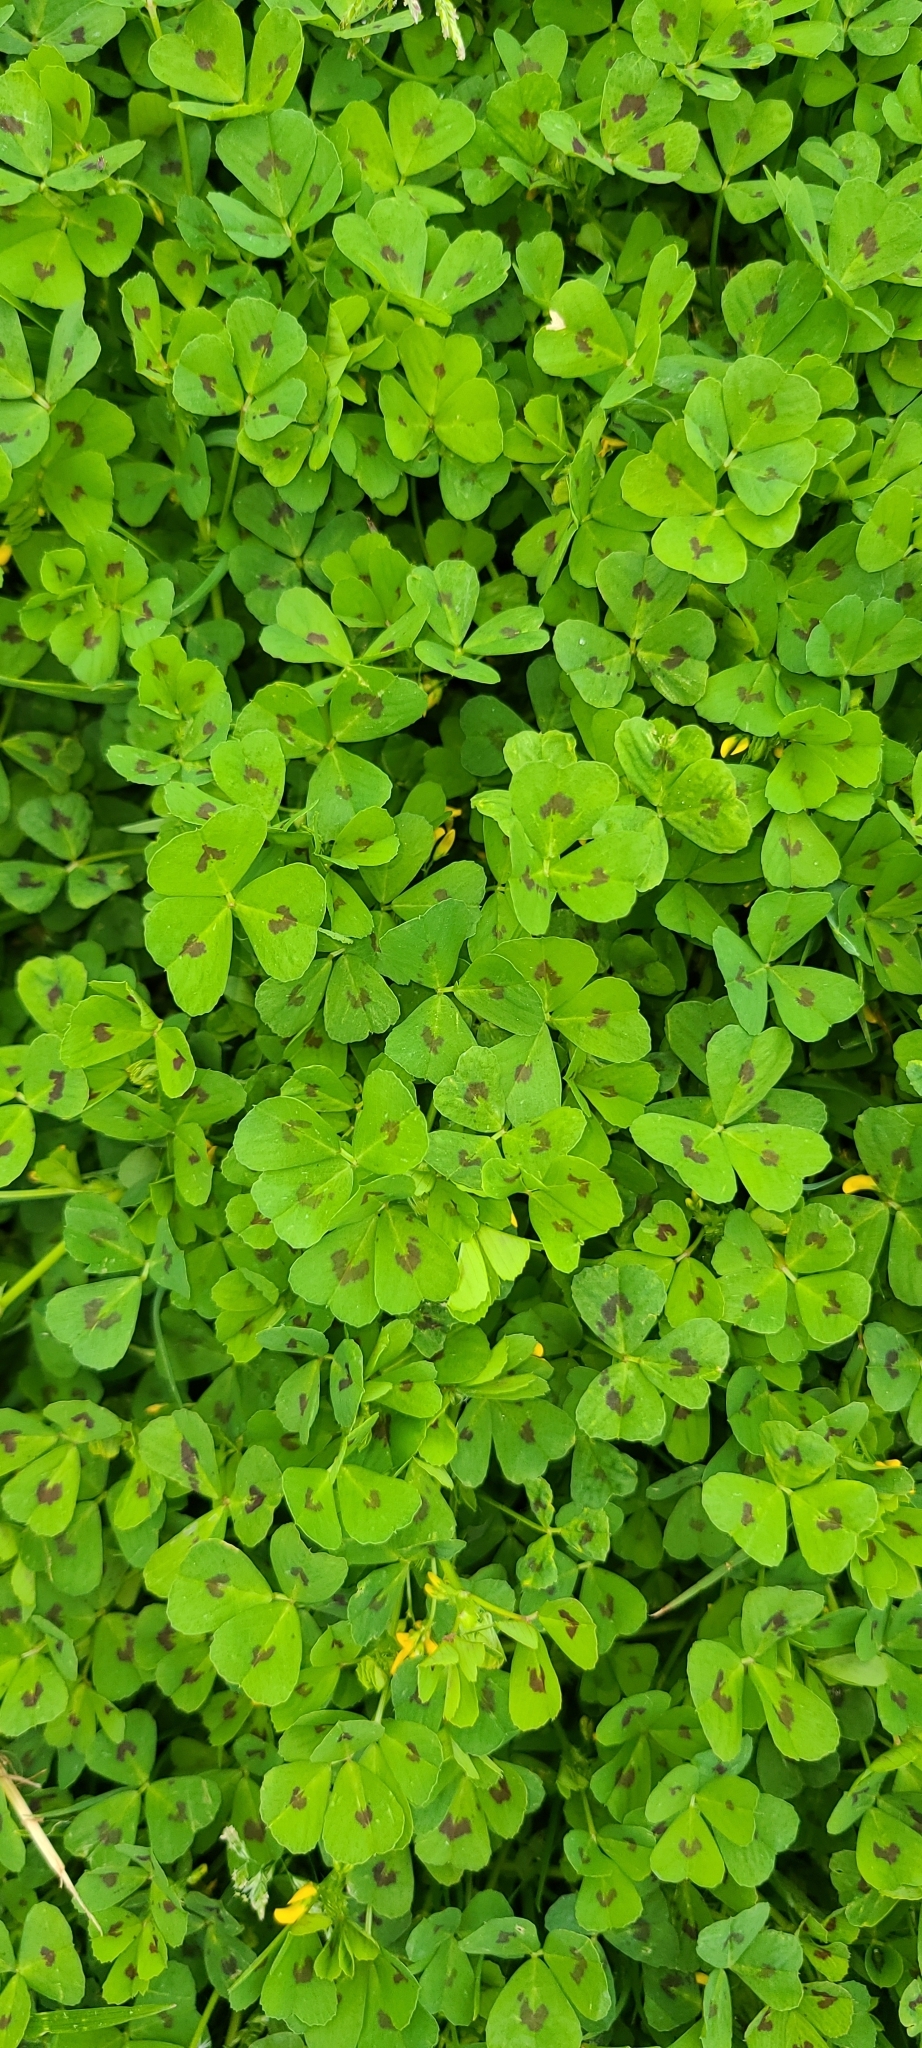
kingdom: Plantae
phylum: Tracheophyta
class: Magnoliopsida
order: Fabales
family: Fabaceae
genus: Medicago
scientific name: Medicago arabica
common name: Spotted medick
